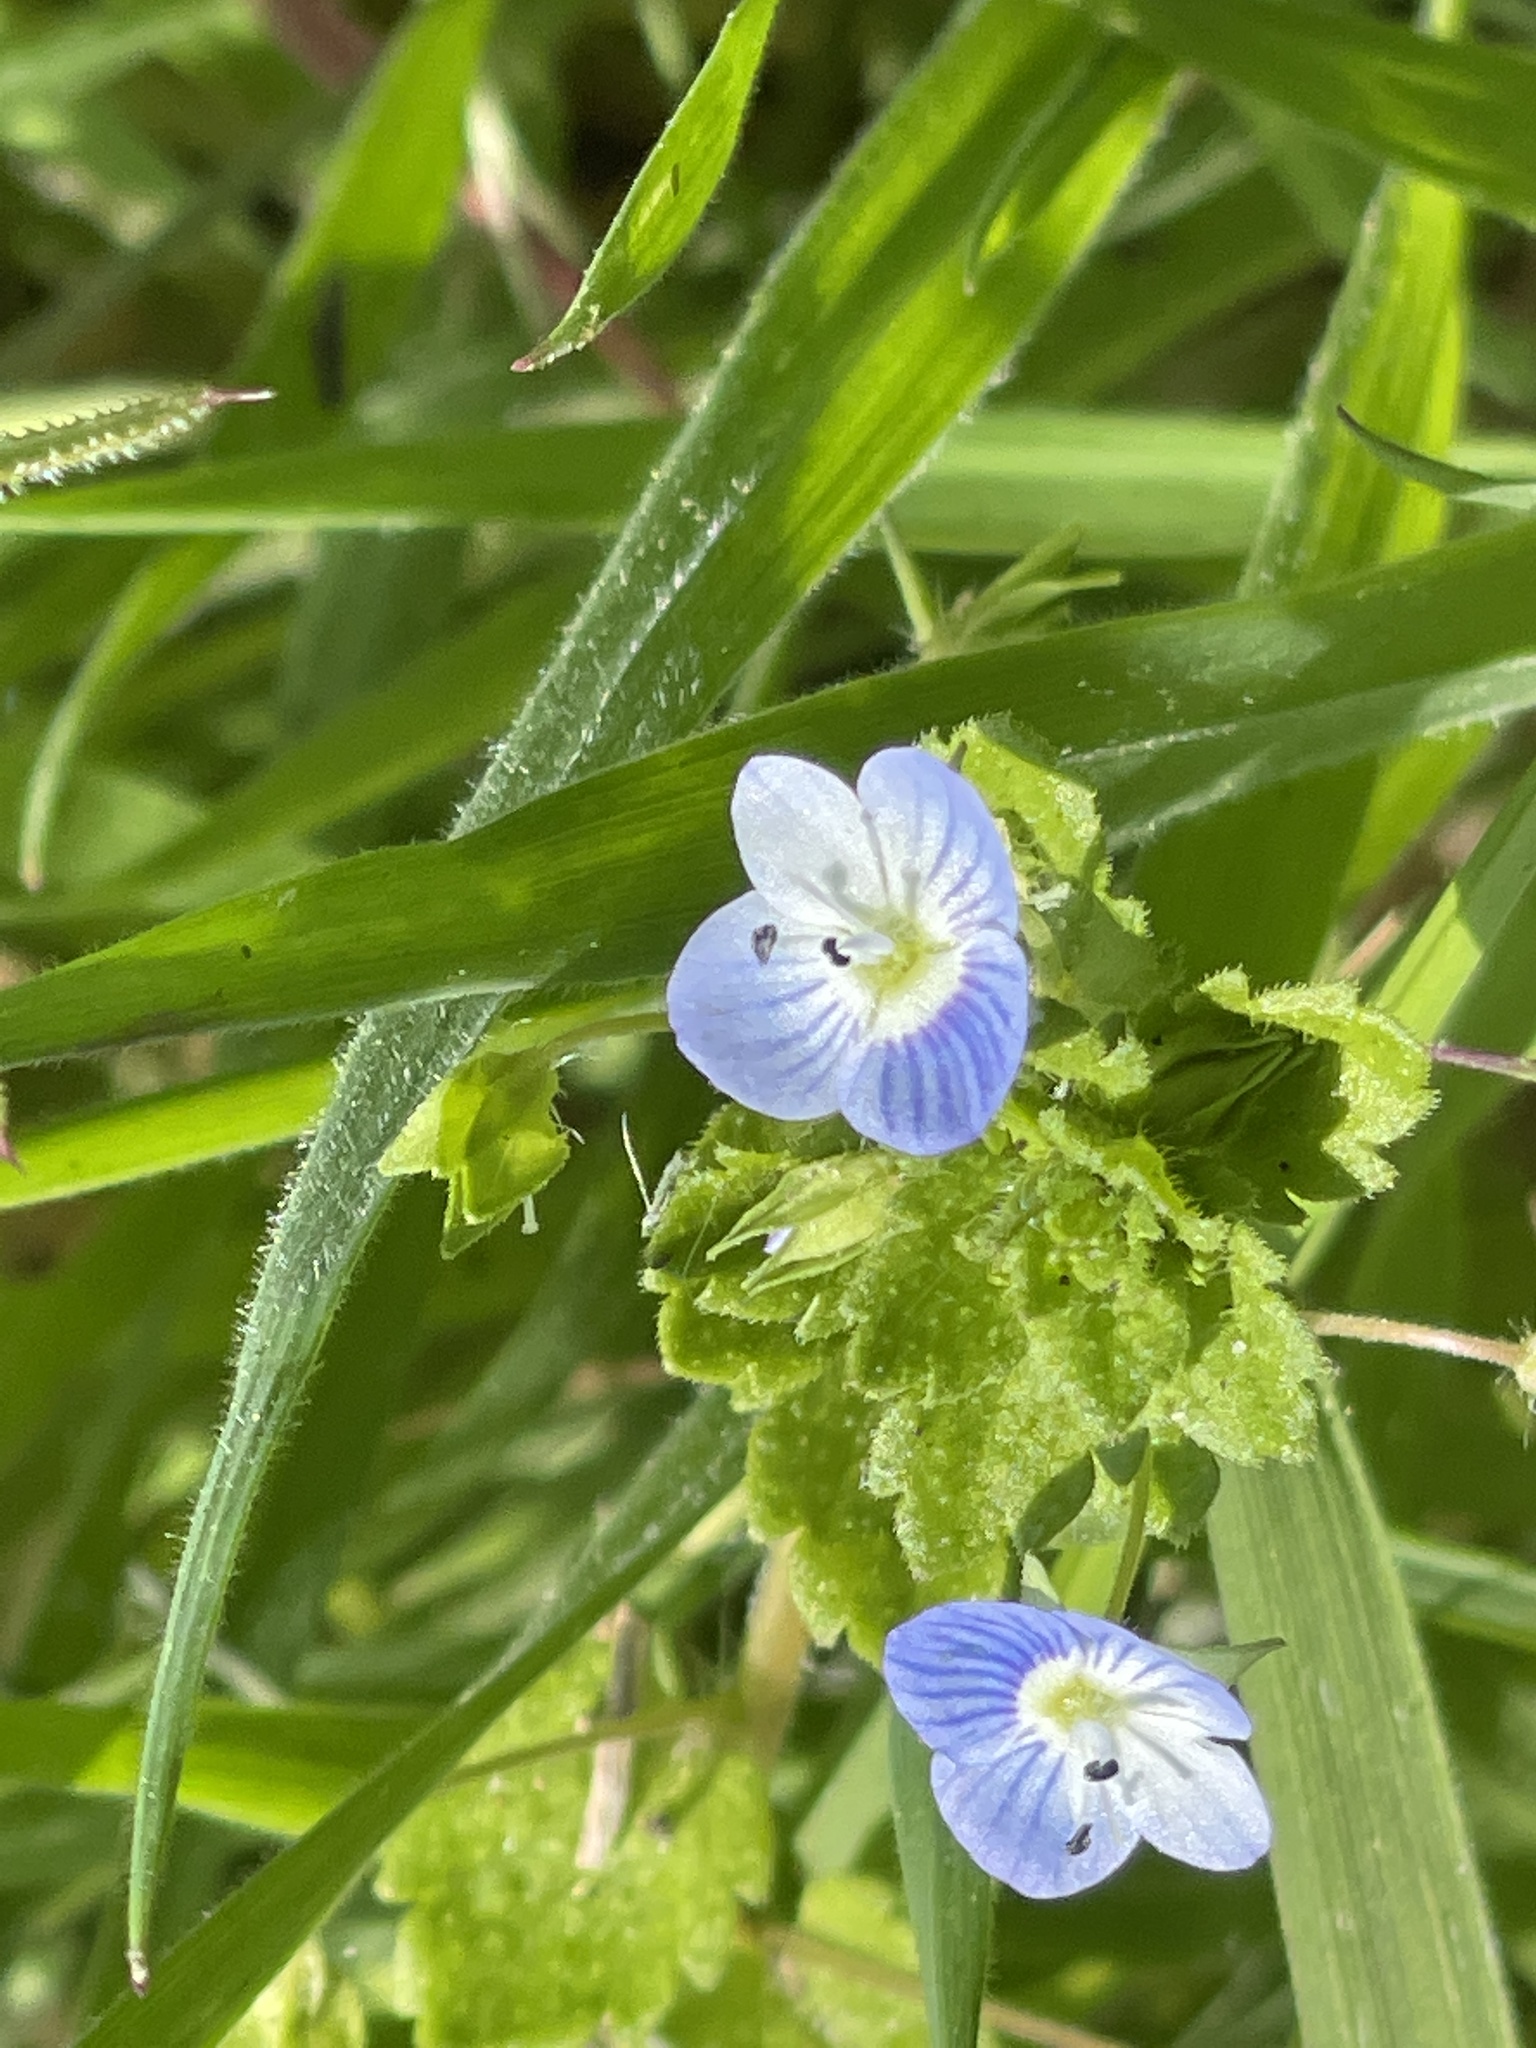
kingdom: Plantae
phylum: Tracheophyta
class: Magnoliopsida
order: Lamiales
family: Plantaginaceae
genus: Veronica
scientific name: Veronica persica
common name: Common field-speedwell
